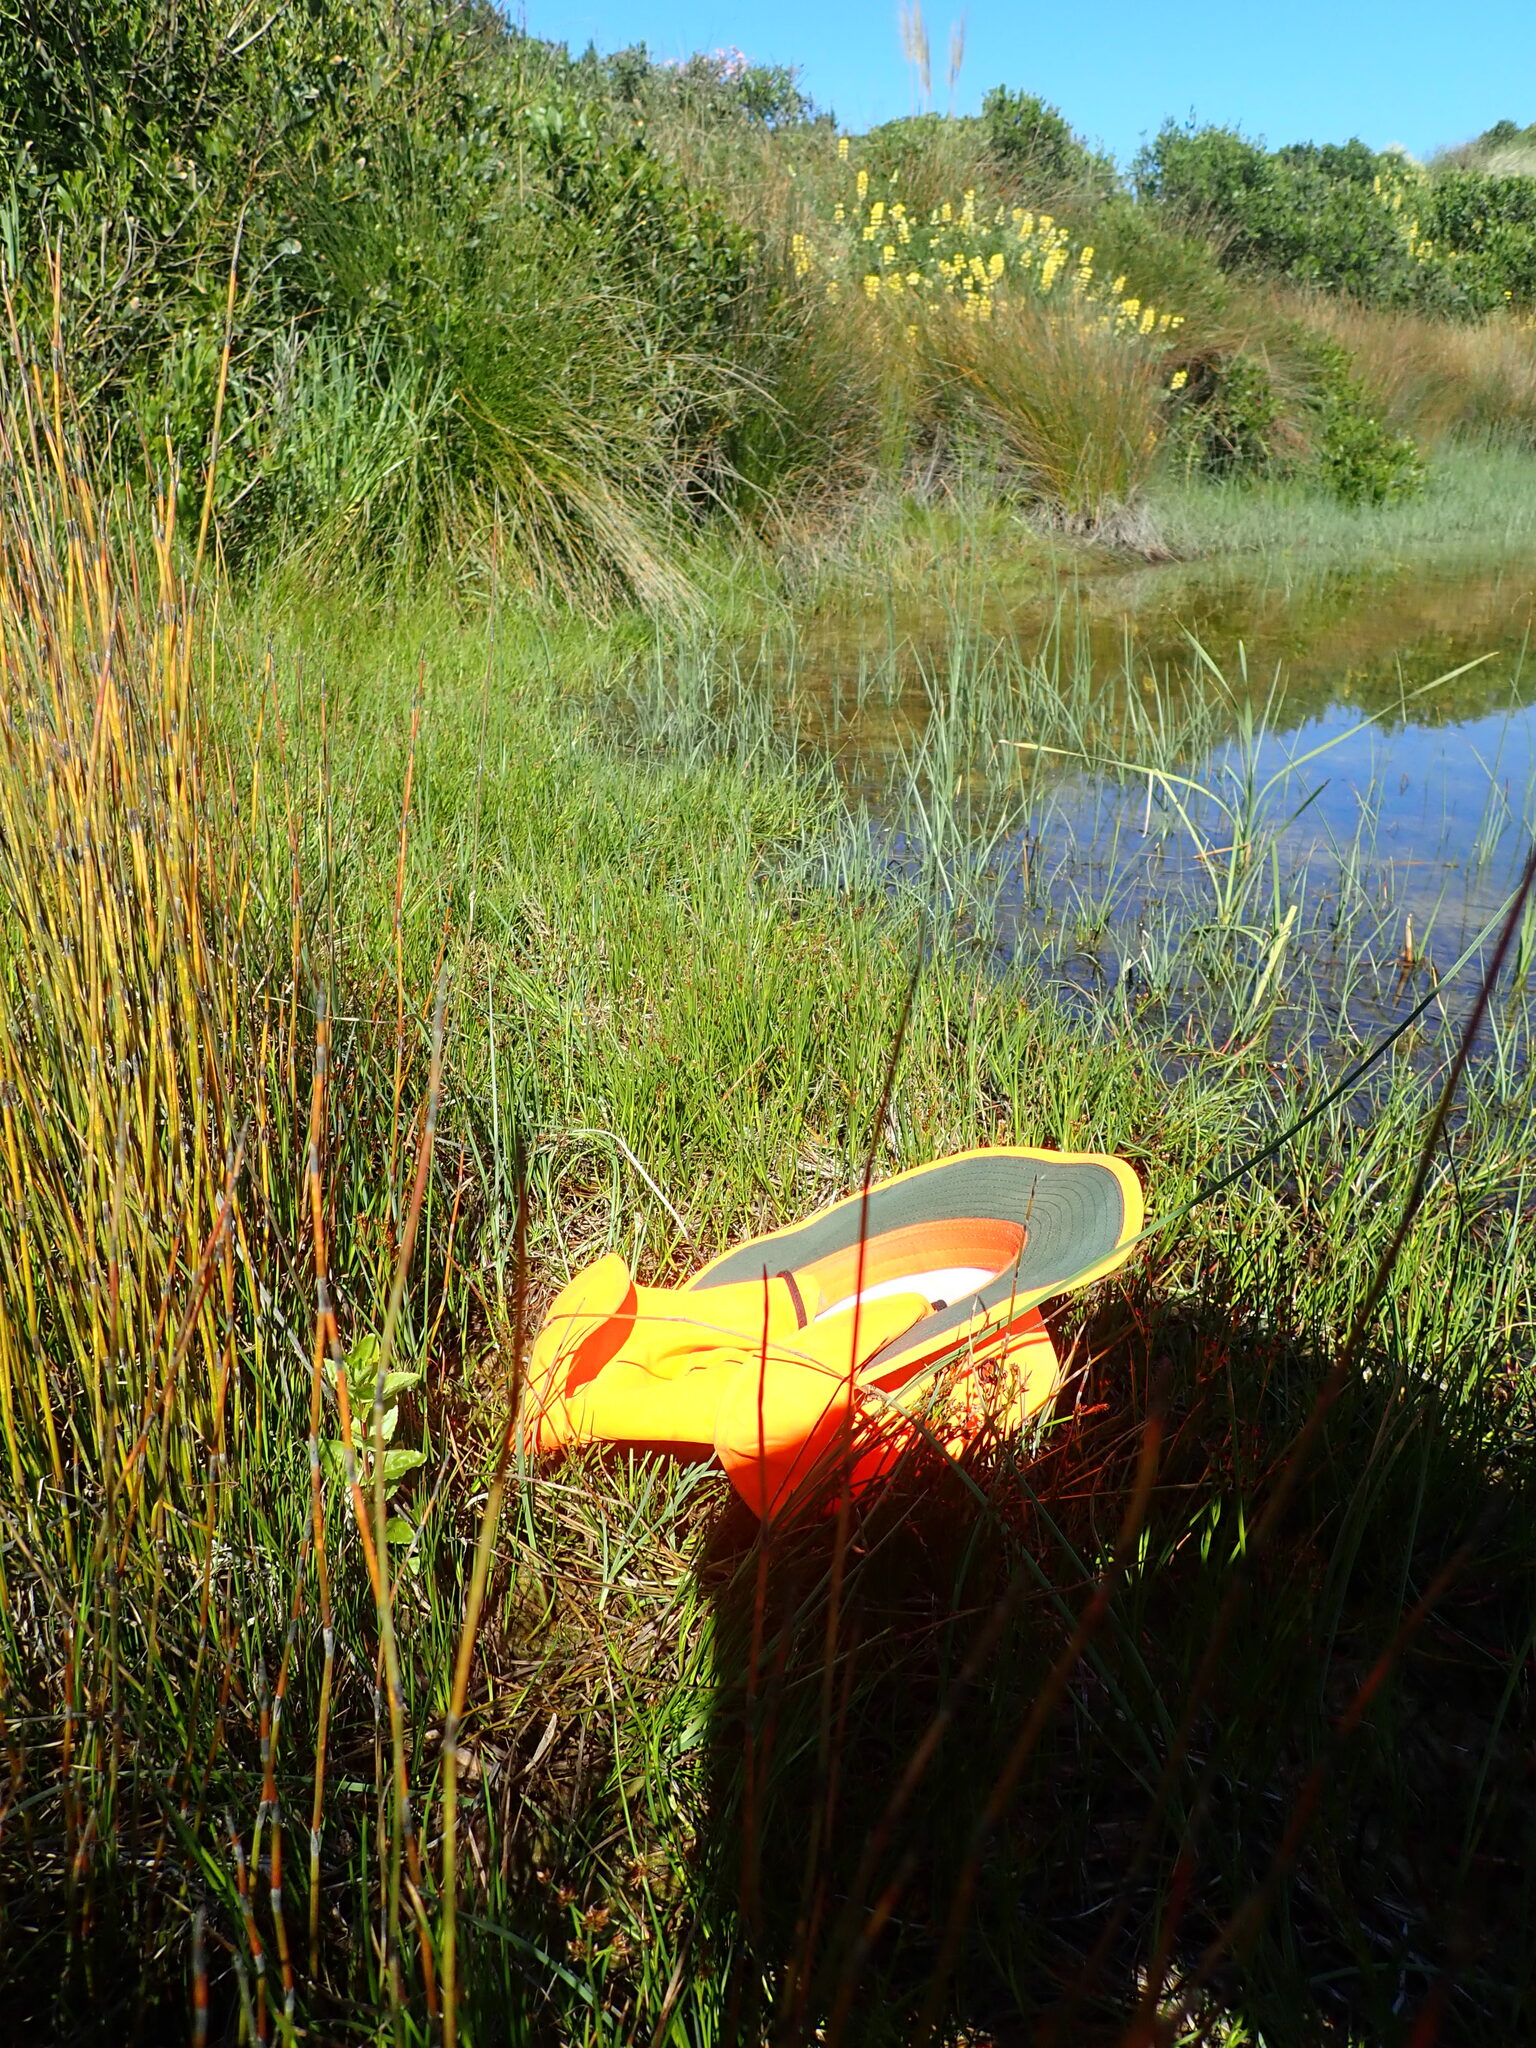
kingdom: Plantae
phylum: Tracheophyta
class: Magnoliopsida
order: Myrtales
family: Onagraceae
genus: Epilobium
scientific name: Epilobium billardiereanum
